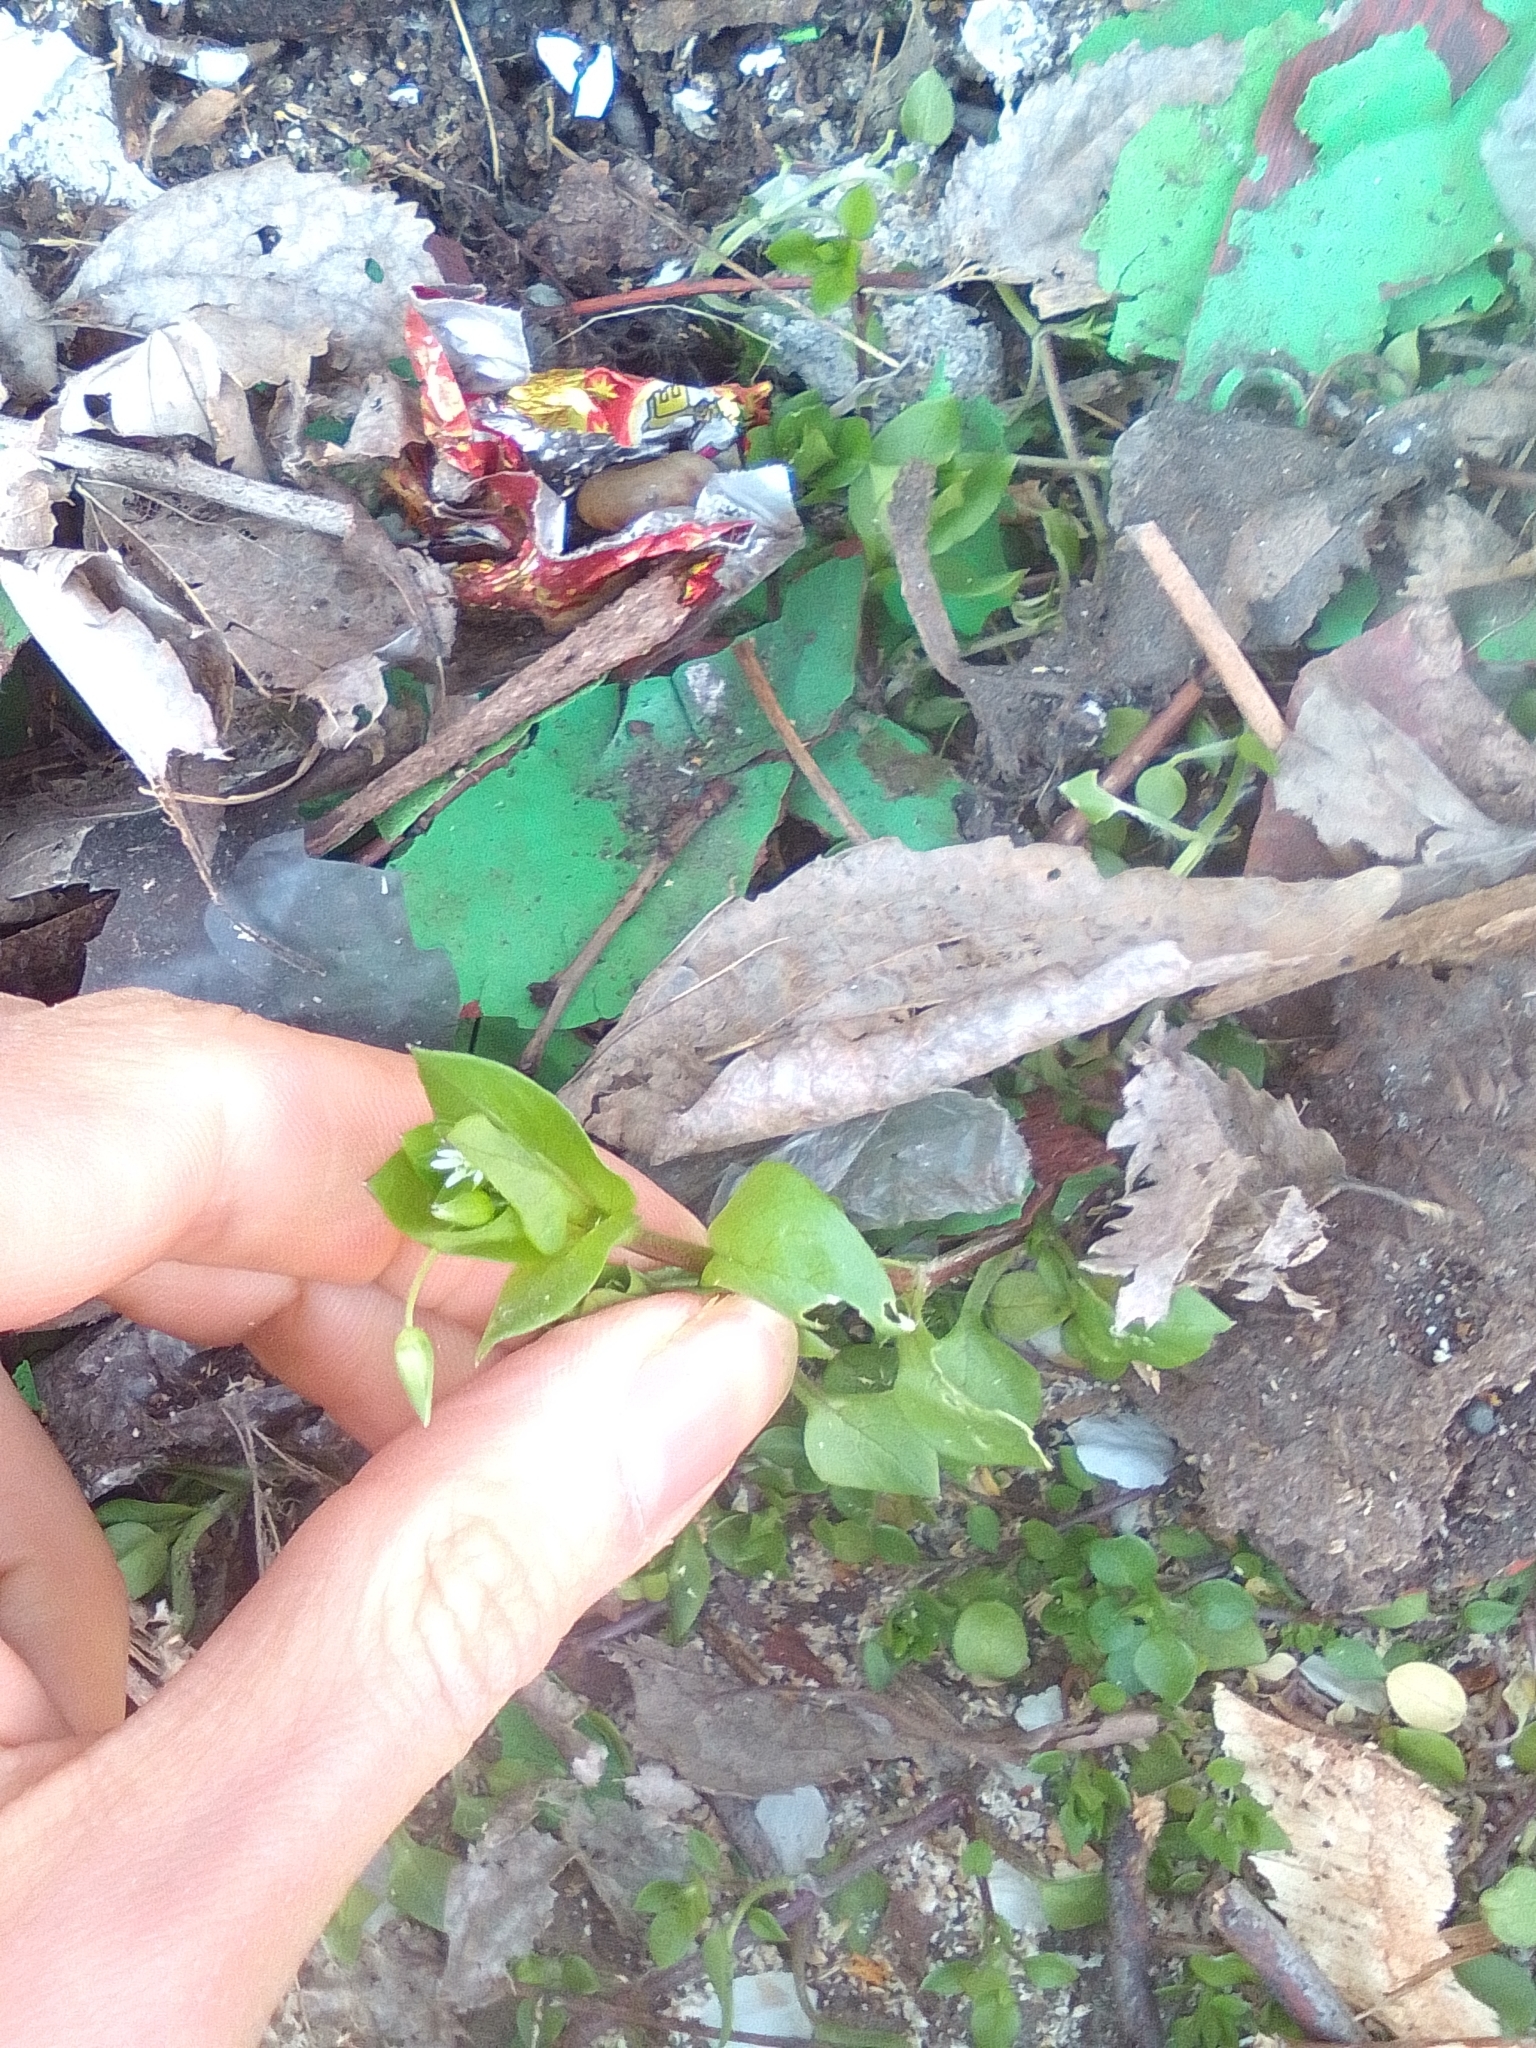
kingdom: Plantae
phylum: Tracheophyta
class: Magnoliopsida
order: Caryophyllales
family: Caryophyllaceae
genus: Stellaria
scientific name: Stellaria media
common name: Common chickweed
